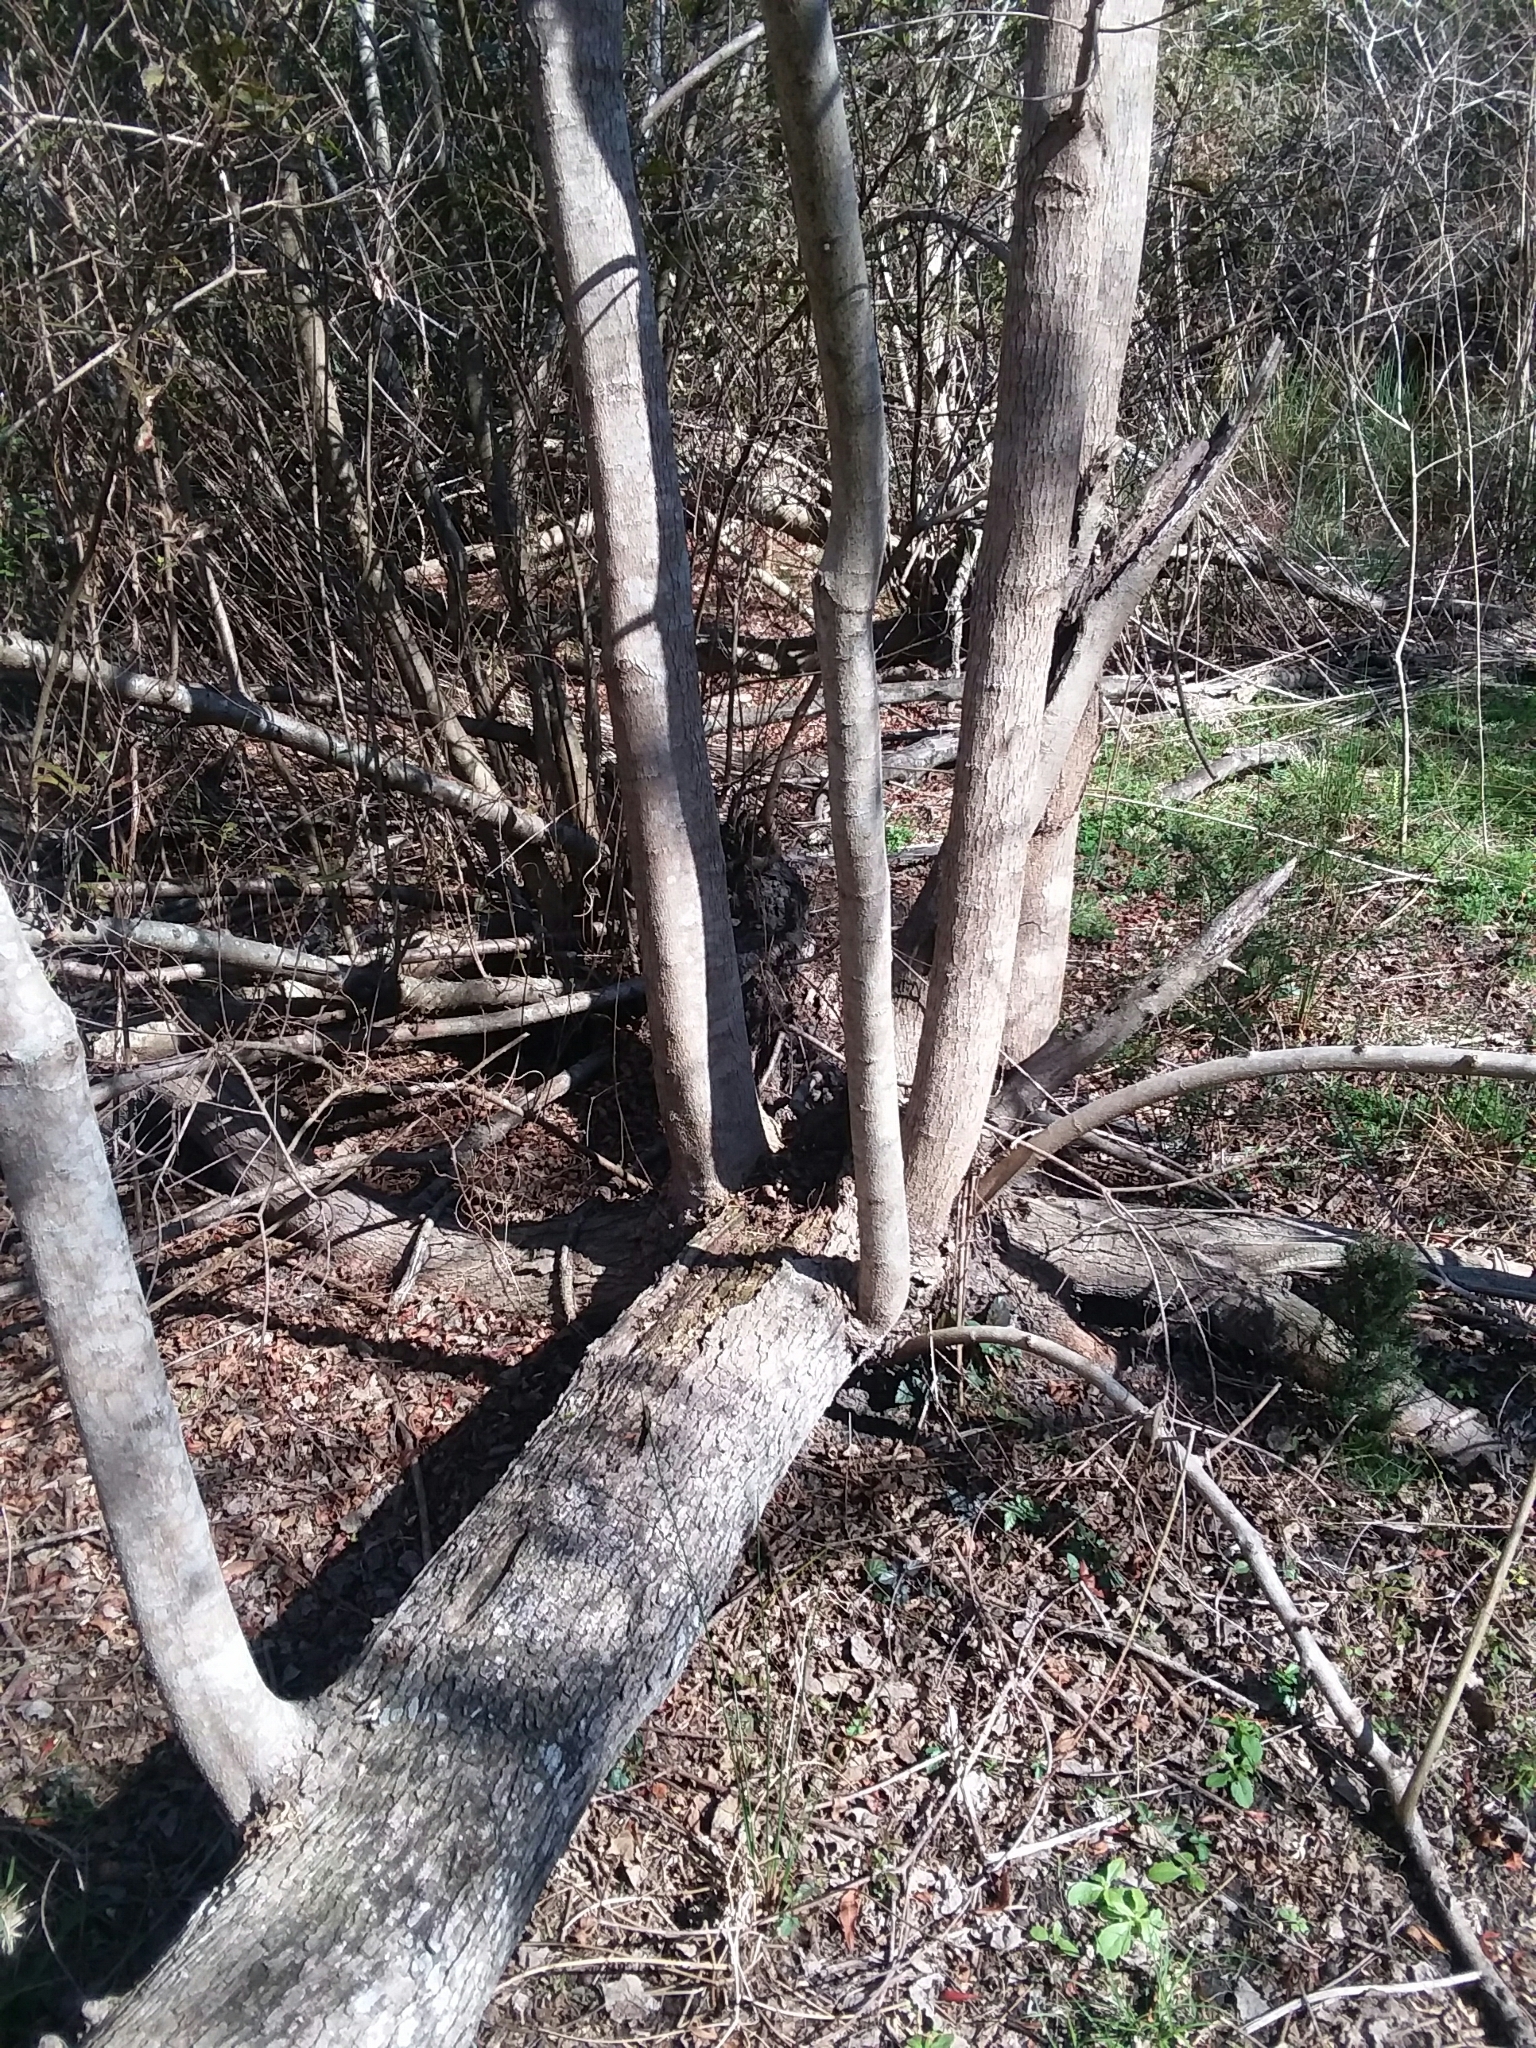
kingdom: Plantae
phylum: Tracheophyta
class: Magnoliopsida
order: Malpighiales
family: Euphorbiaceae
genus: Triadica
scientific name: Triadica sebifera
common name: Chinese tallow
